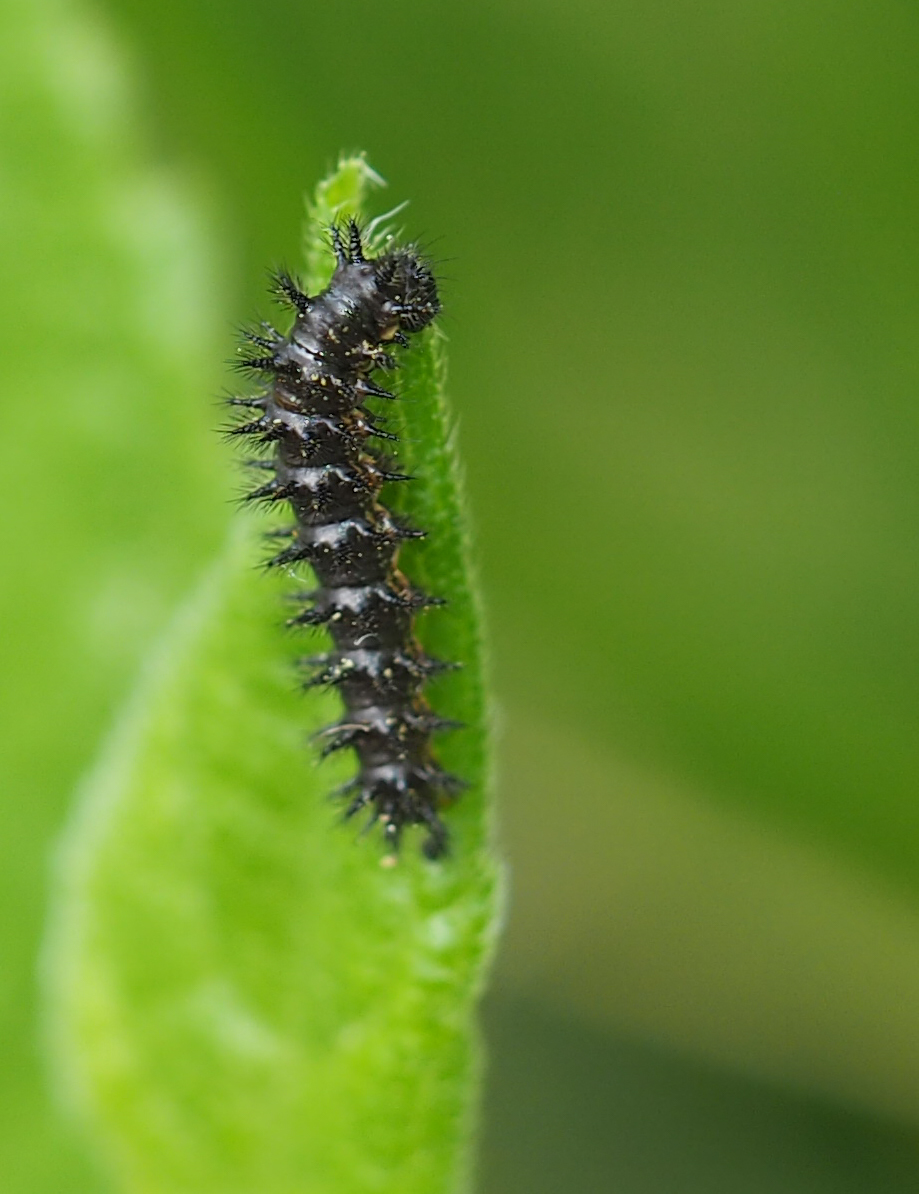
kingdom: Animalia
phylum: Arthropoda
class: Insecta
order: Lepidoptera
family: Nymphalidae
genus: Chlosyne
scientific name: Chlosyne nycteis
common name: Silvery checkerspot
